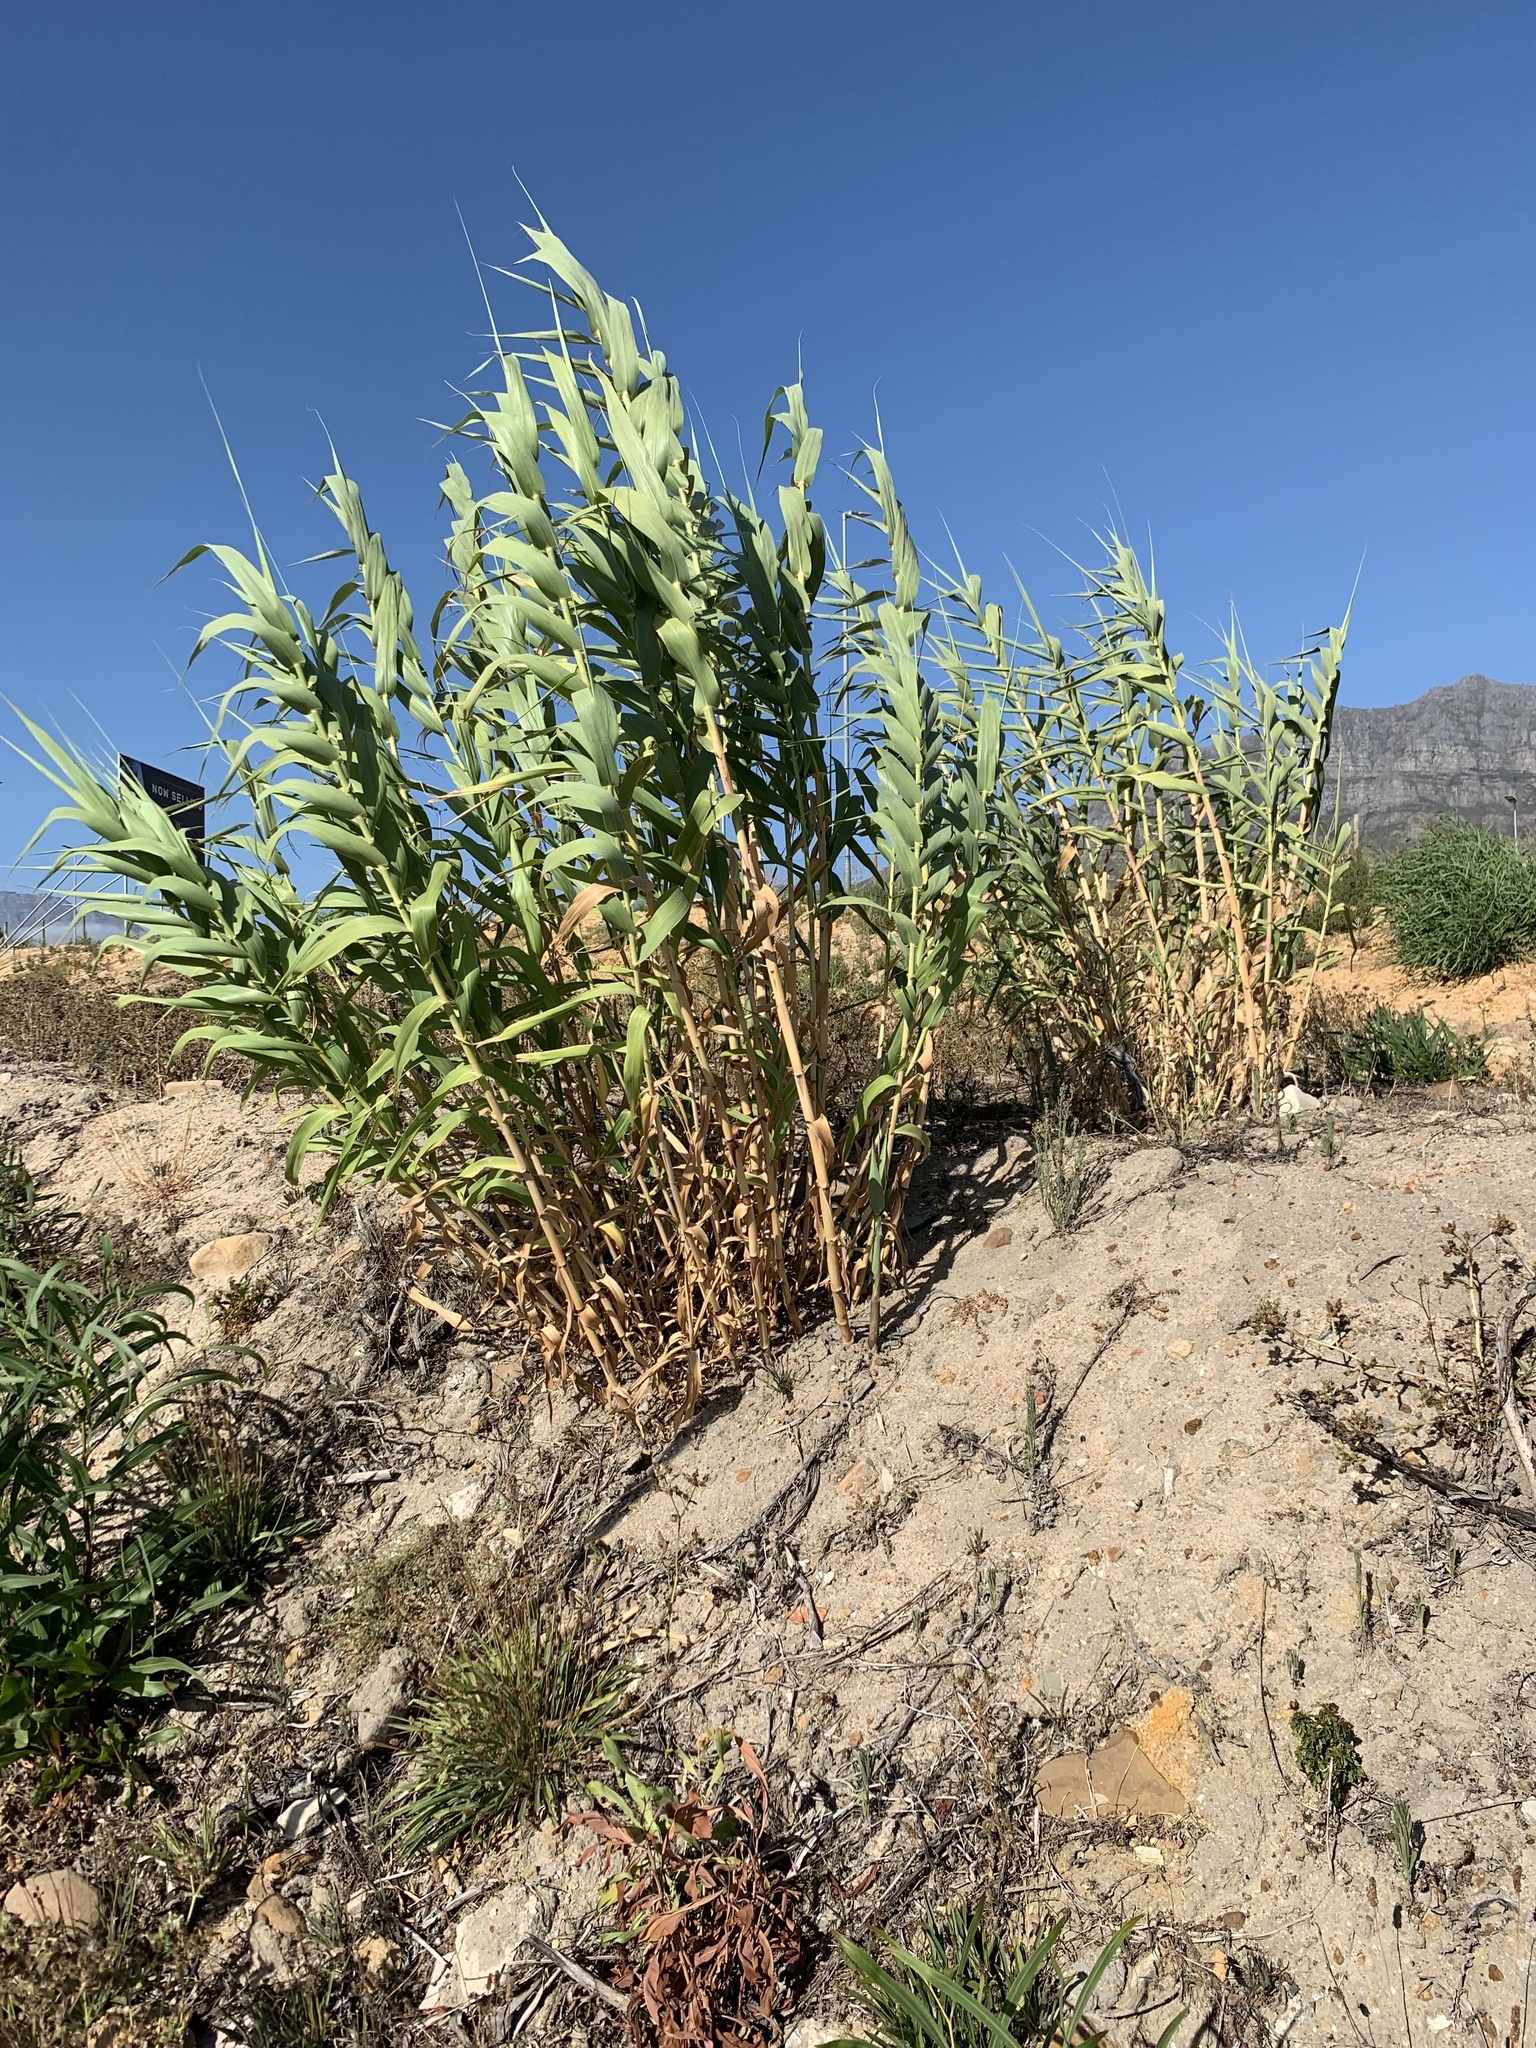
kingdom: Plantae
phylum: Tracheophyta
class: Liliopsida
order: Poales
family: Poaceae
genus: Arundo
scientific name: Arundo donax
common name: Giant reed
